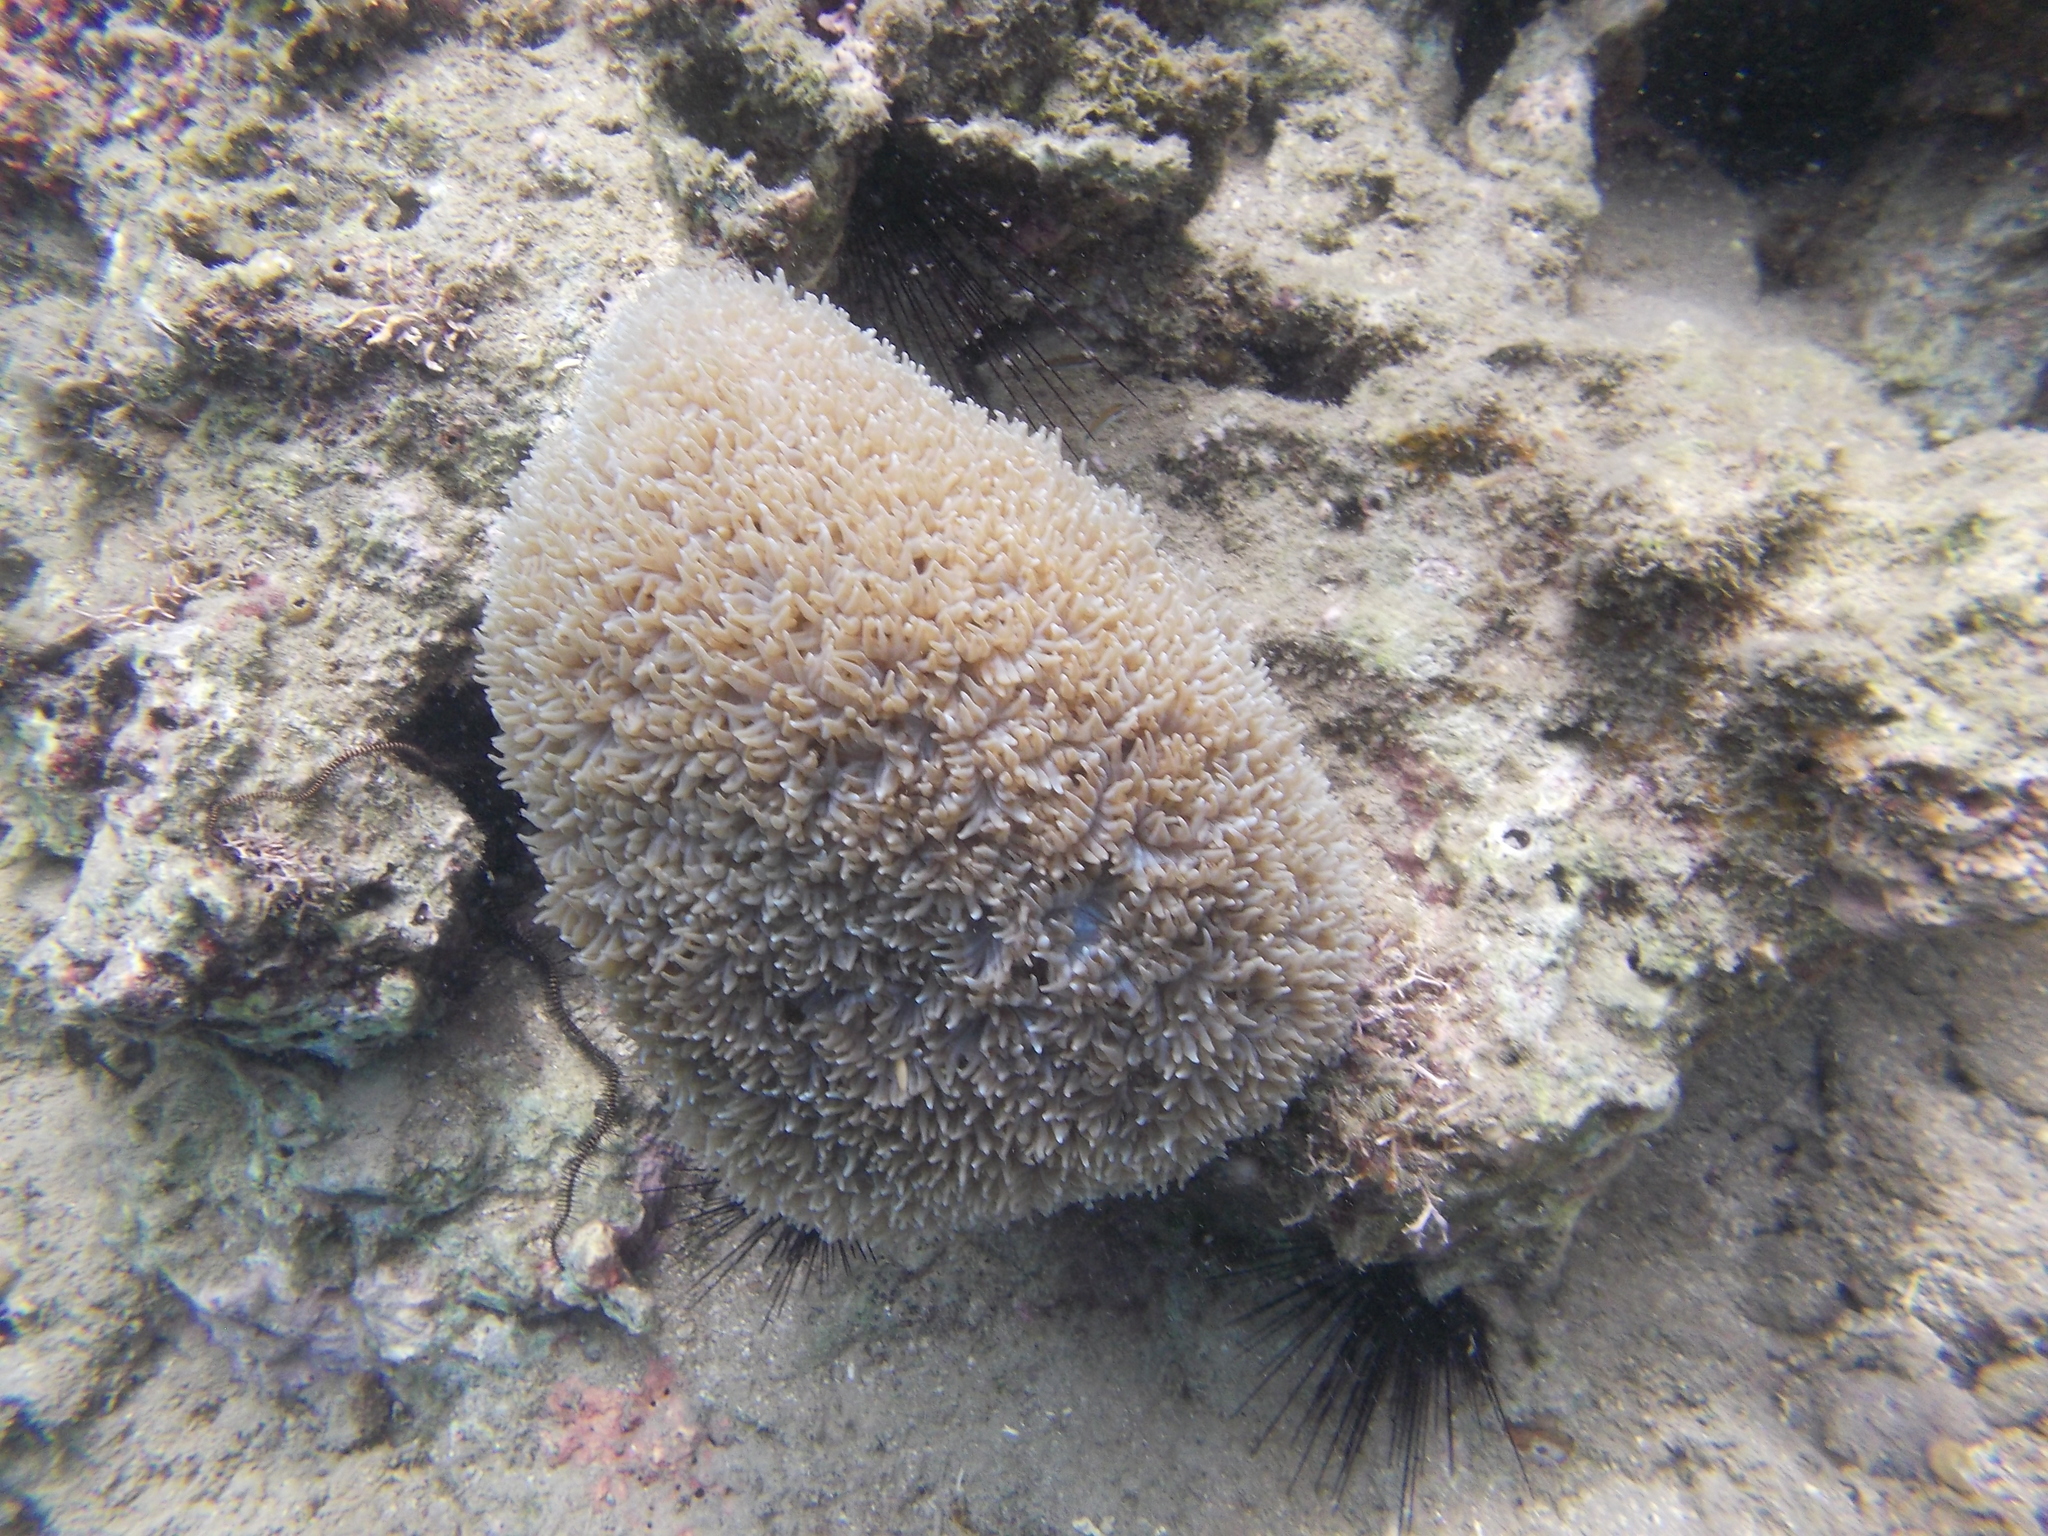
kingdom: Animalia
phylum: Cnidaria
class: Anthozoa
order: Scleractinia
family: Plerogyridae
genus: Physogyra
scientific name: Physogyra lichtensteini
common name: Tipped bubblegum coral
